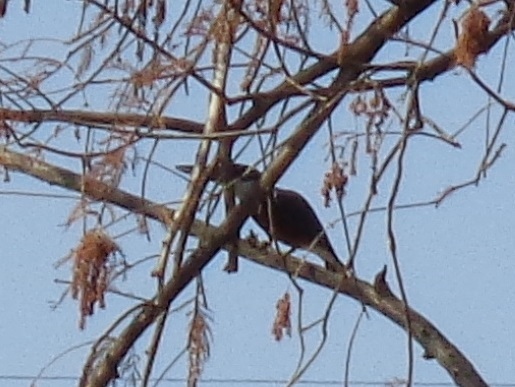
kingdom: Animalia
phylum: Chordata
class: Aves
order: Coraciiformes
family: Alcedinidae
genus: Megaceryle
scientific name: Megaceryle torquata
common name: Ringed kingfisher
